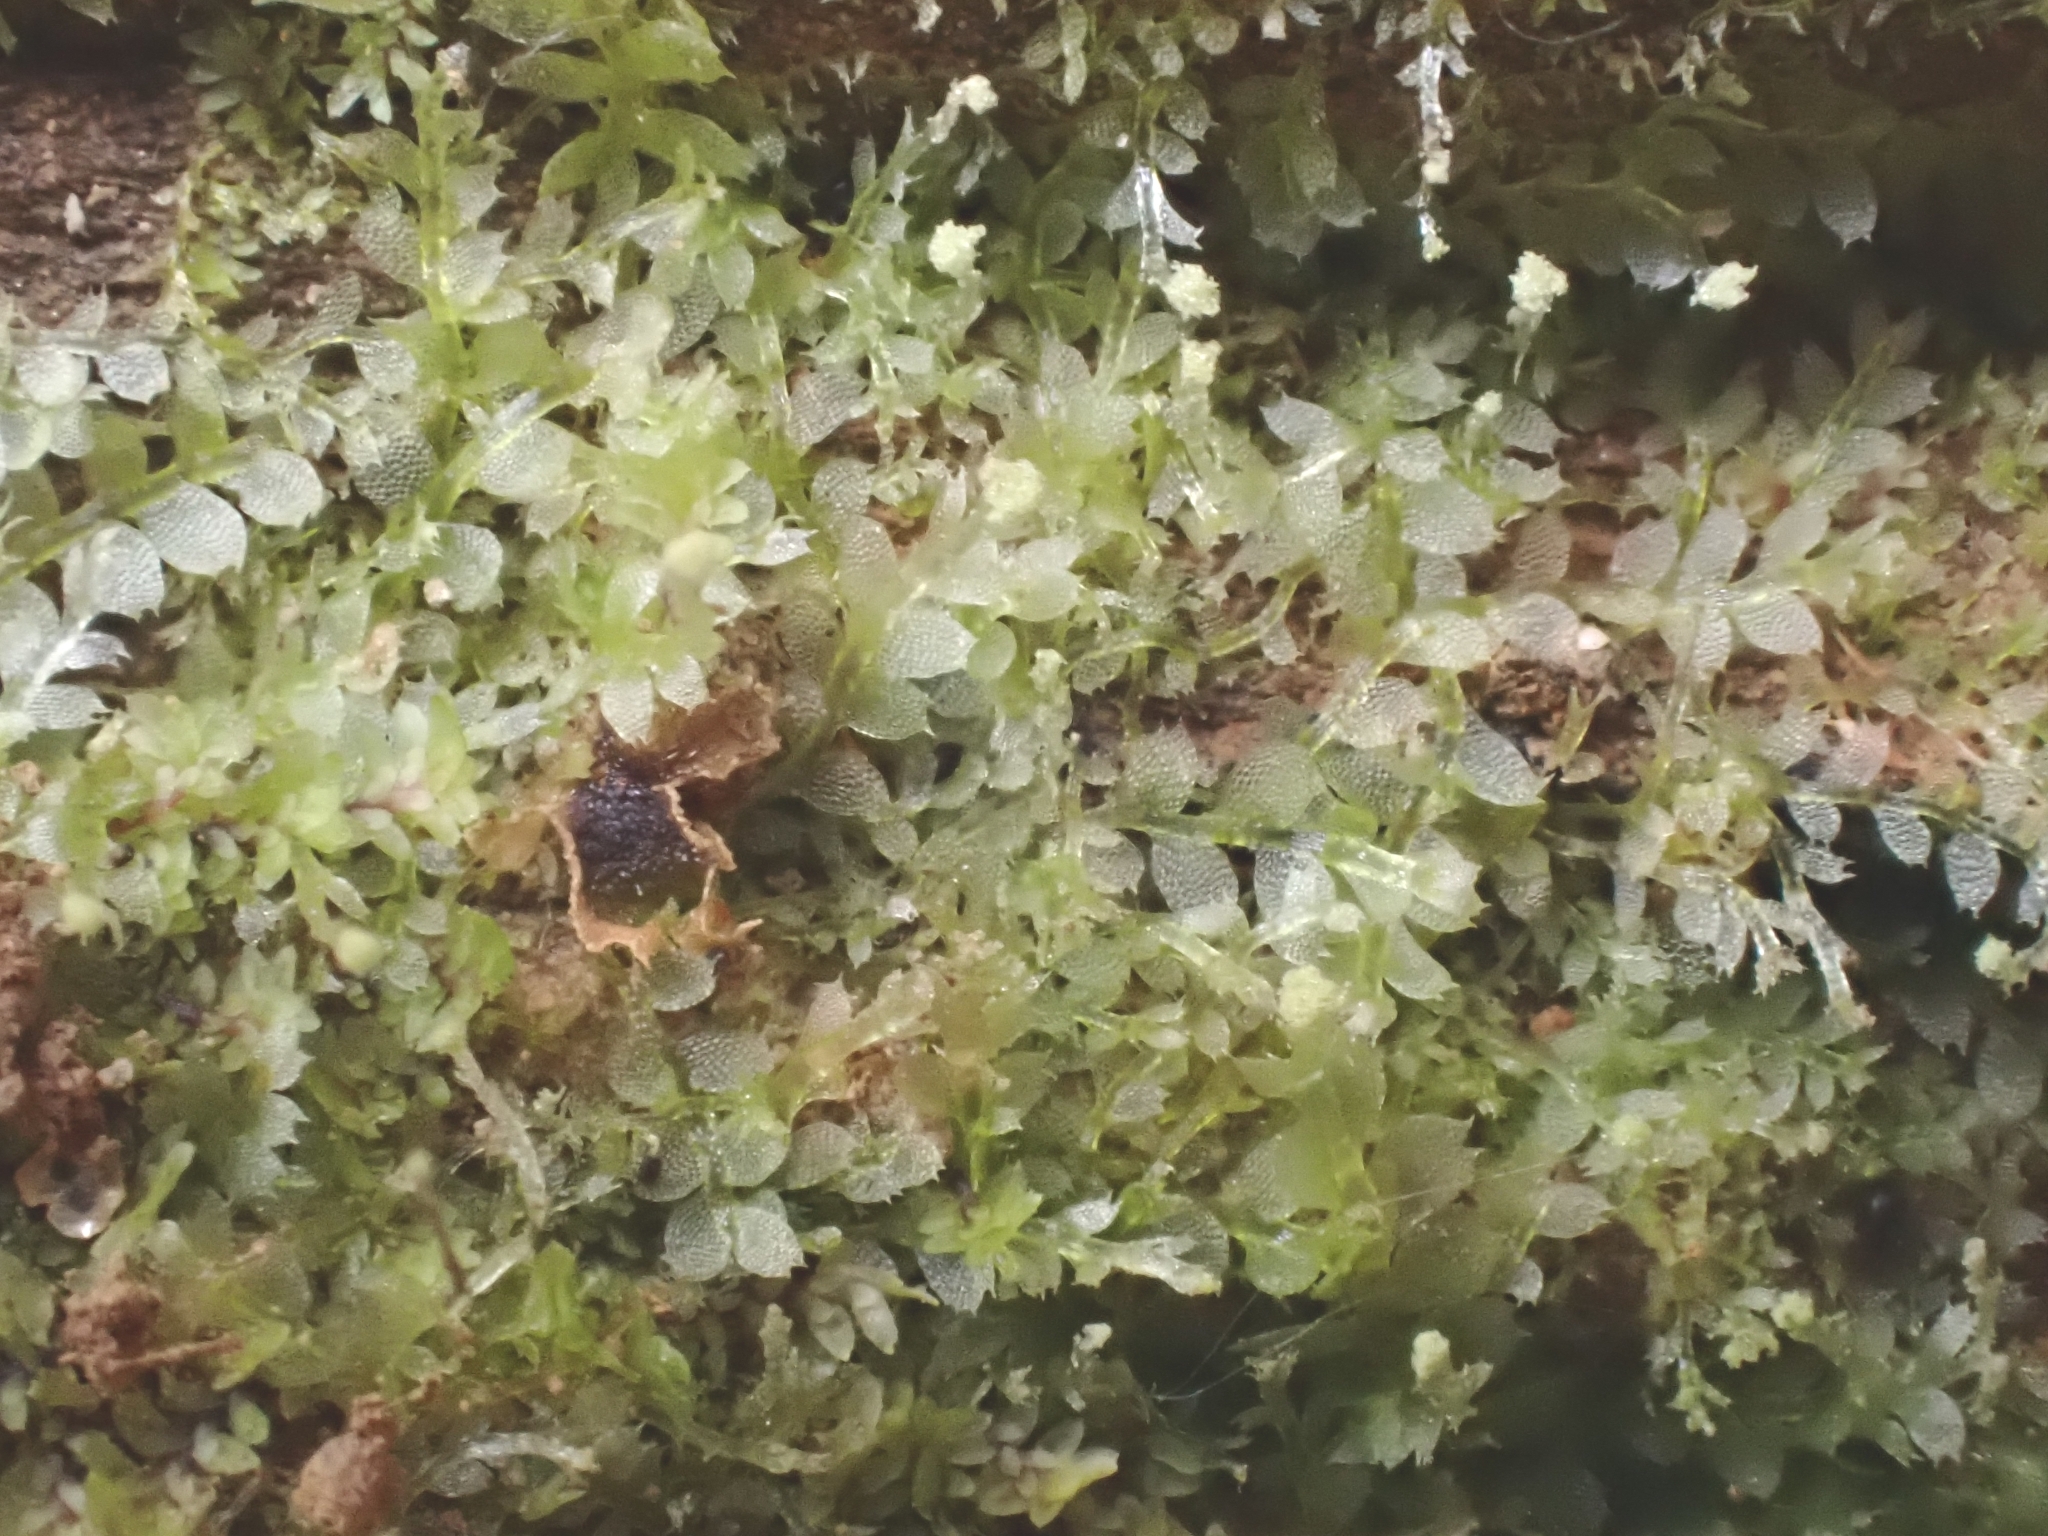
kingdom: Plantae
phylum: Marchantiophyta
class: Jungermanniopsida
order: Jungermanniales
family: Calypogeiaceae
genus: Asperifolia
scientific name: Asperifolia arguta
